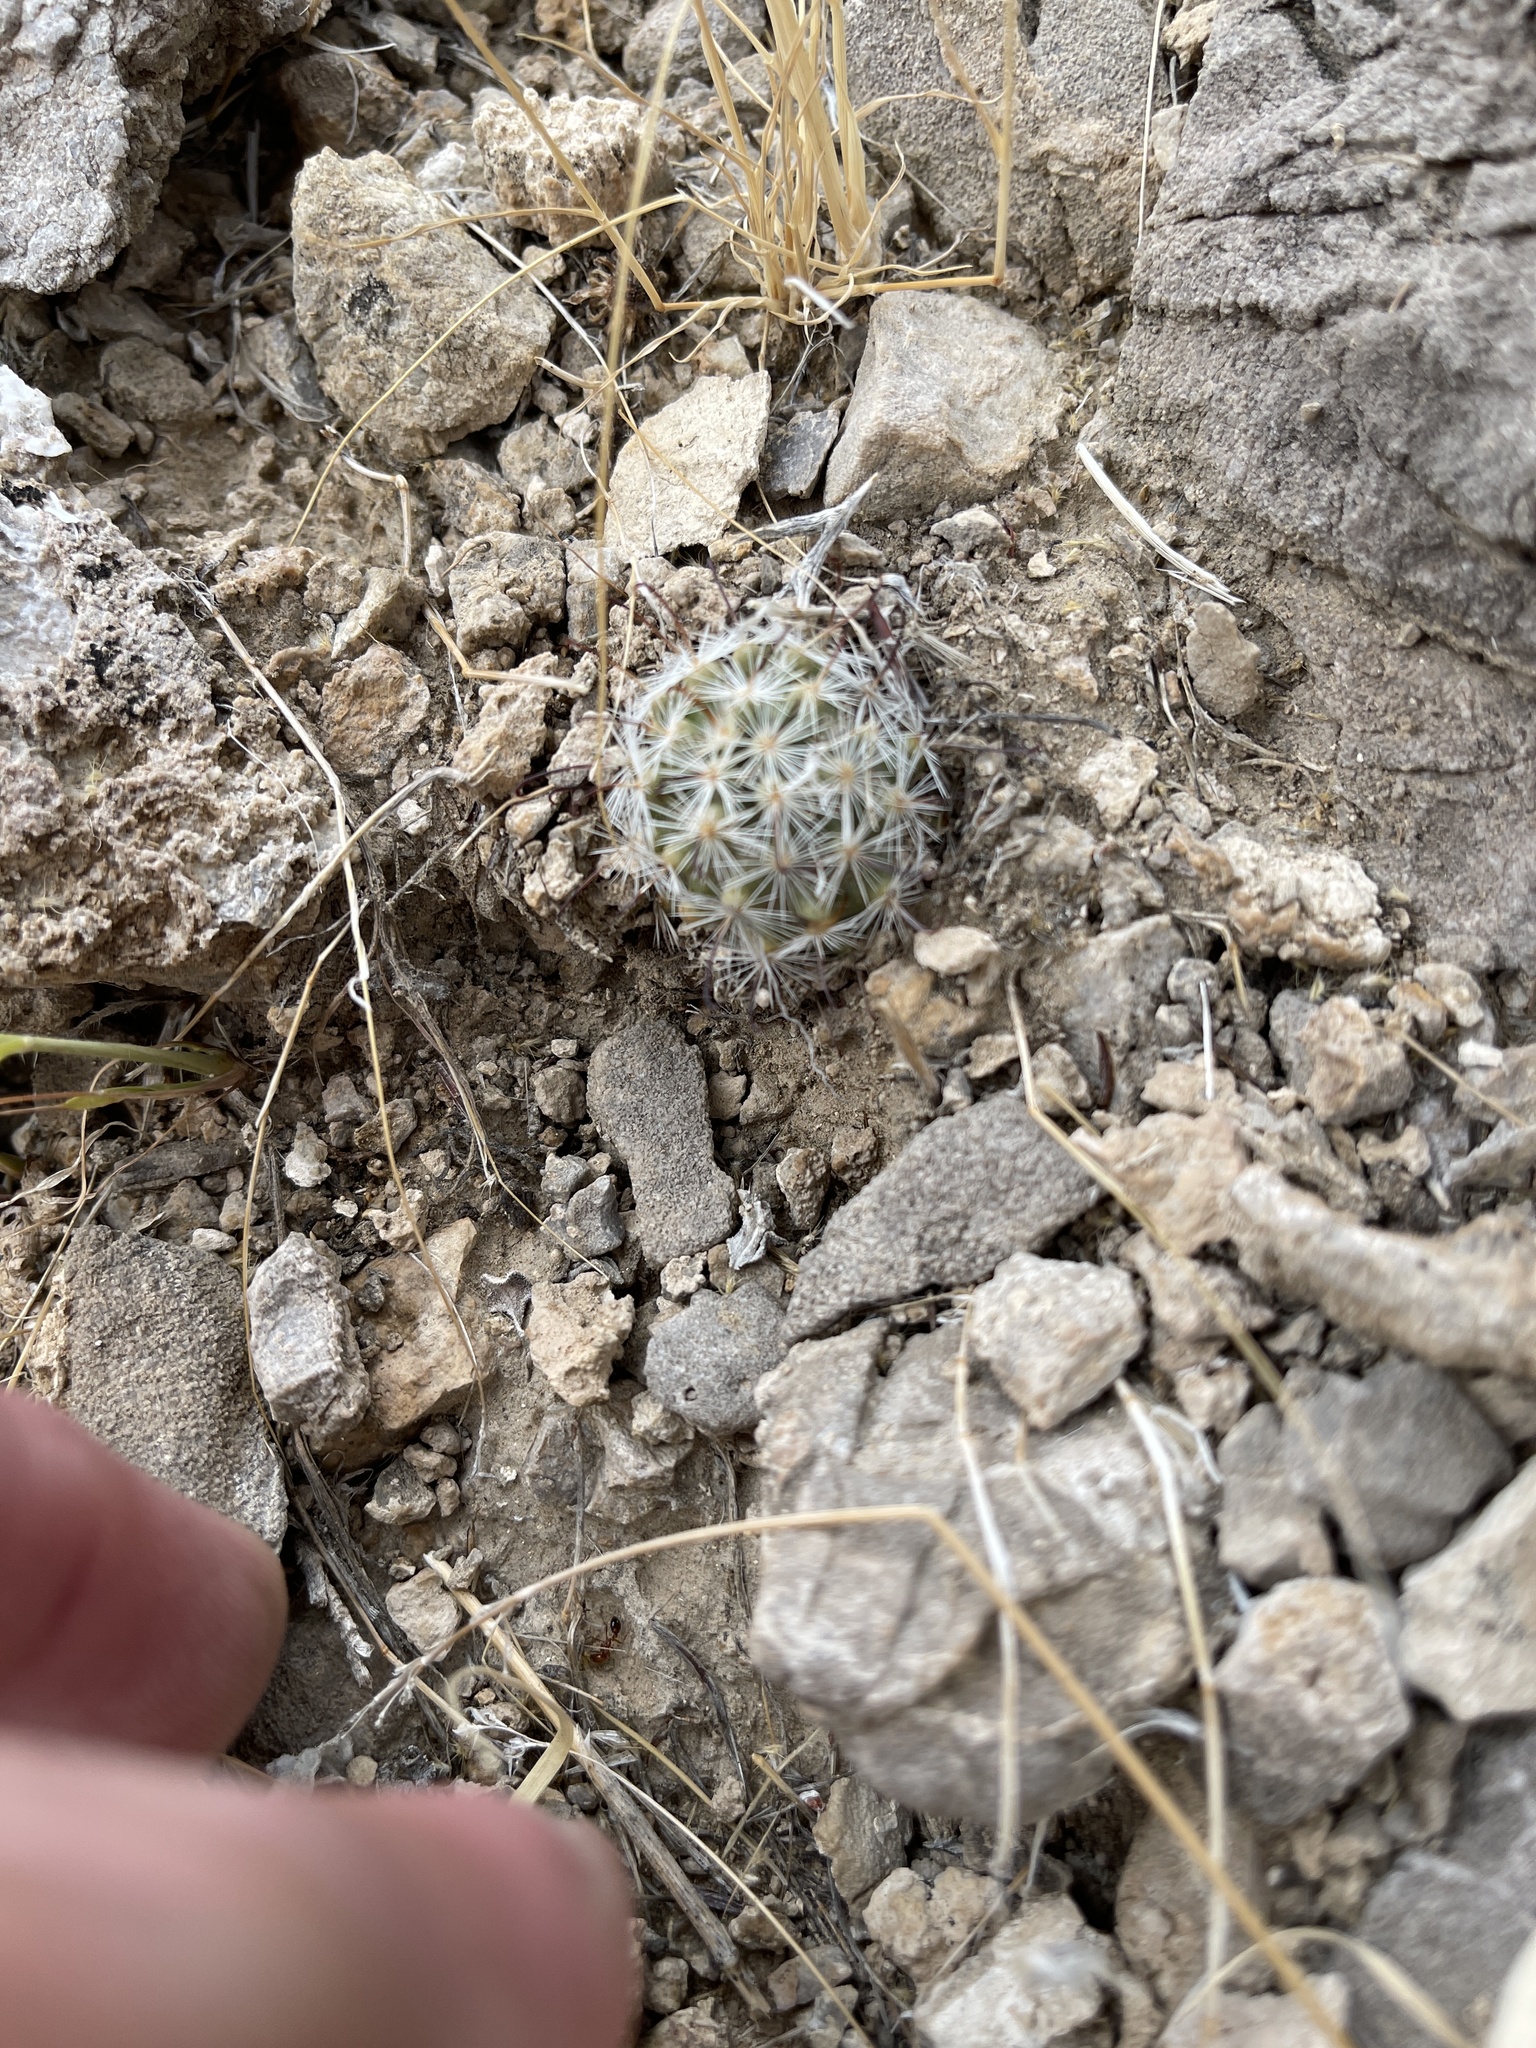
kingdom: Plantae
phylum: Tracheophyta
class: Magnoliopsida
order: Caryophyllales
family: Cactaceae
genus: Cochemiea
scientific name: Cochemiea tetrancistra
